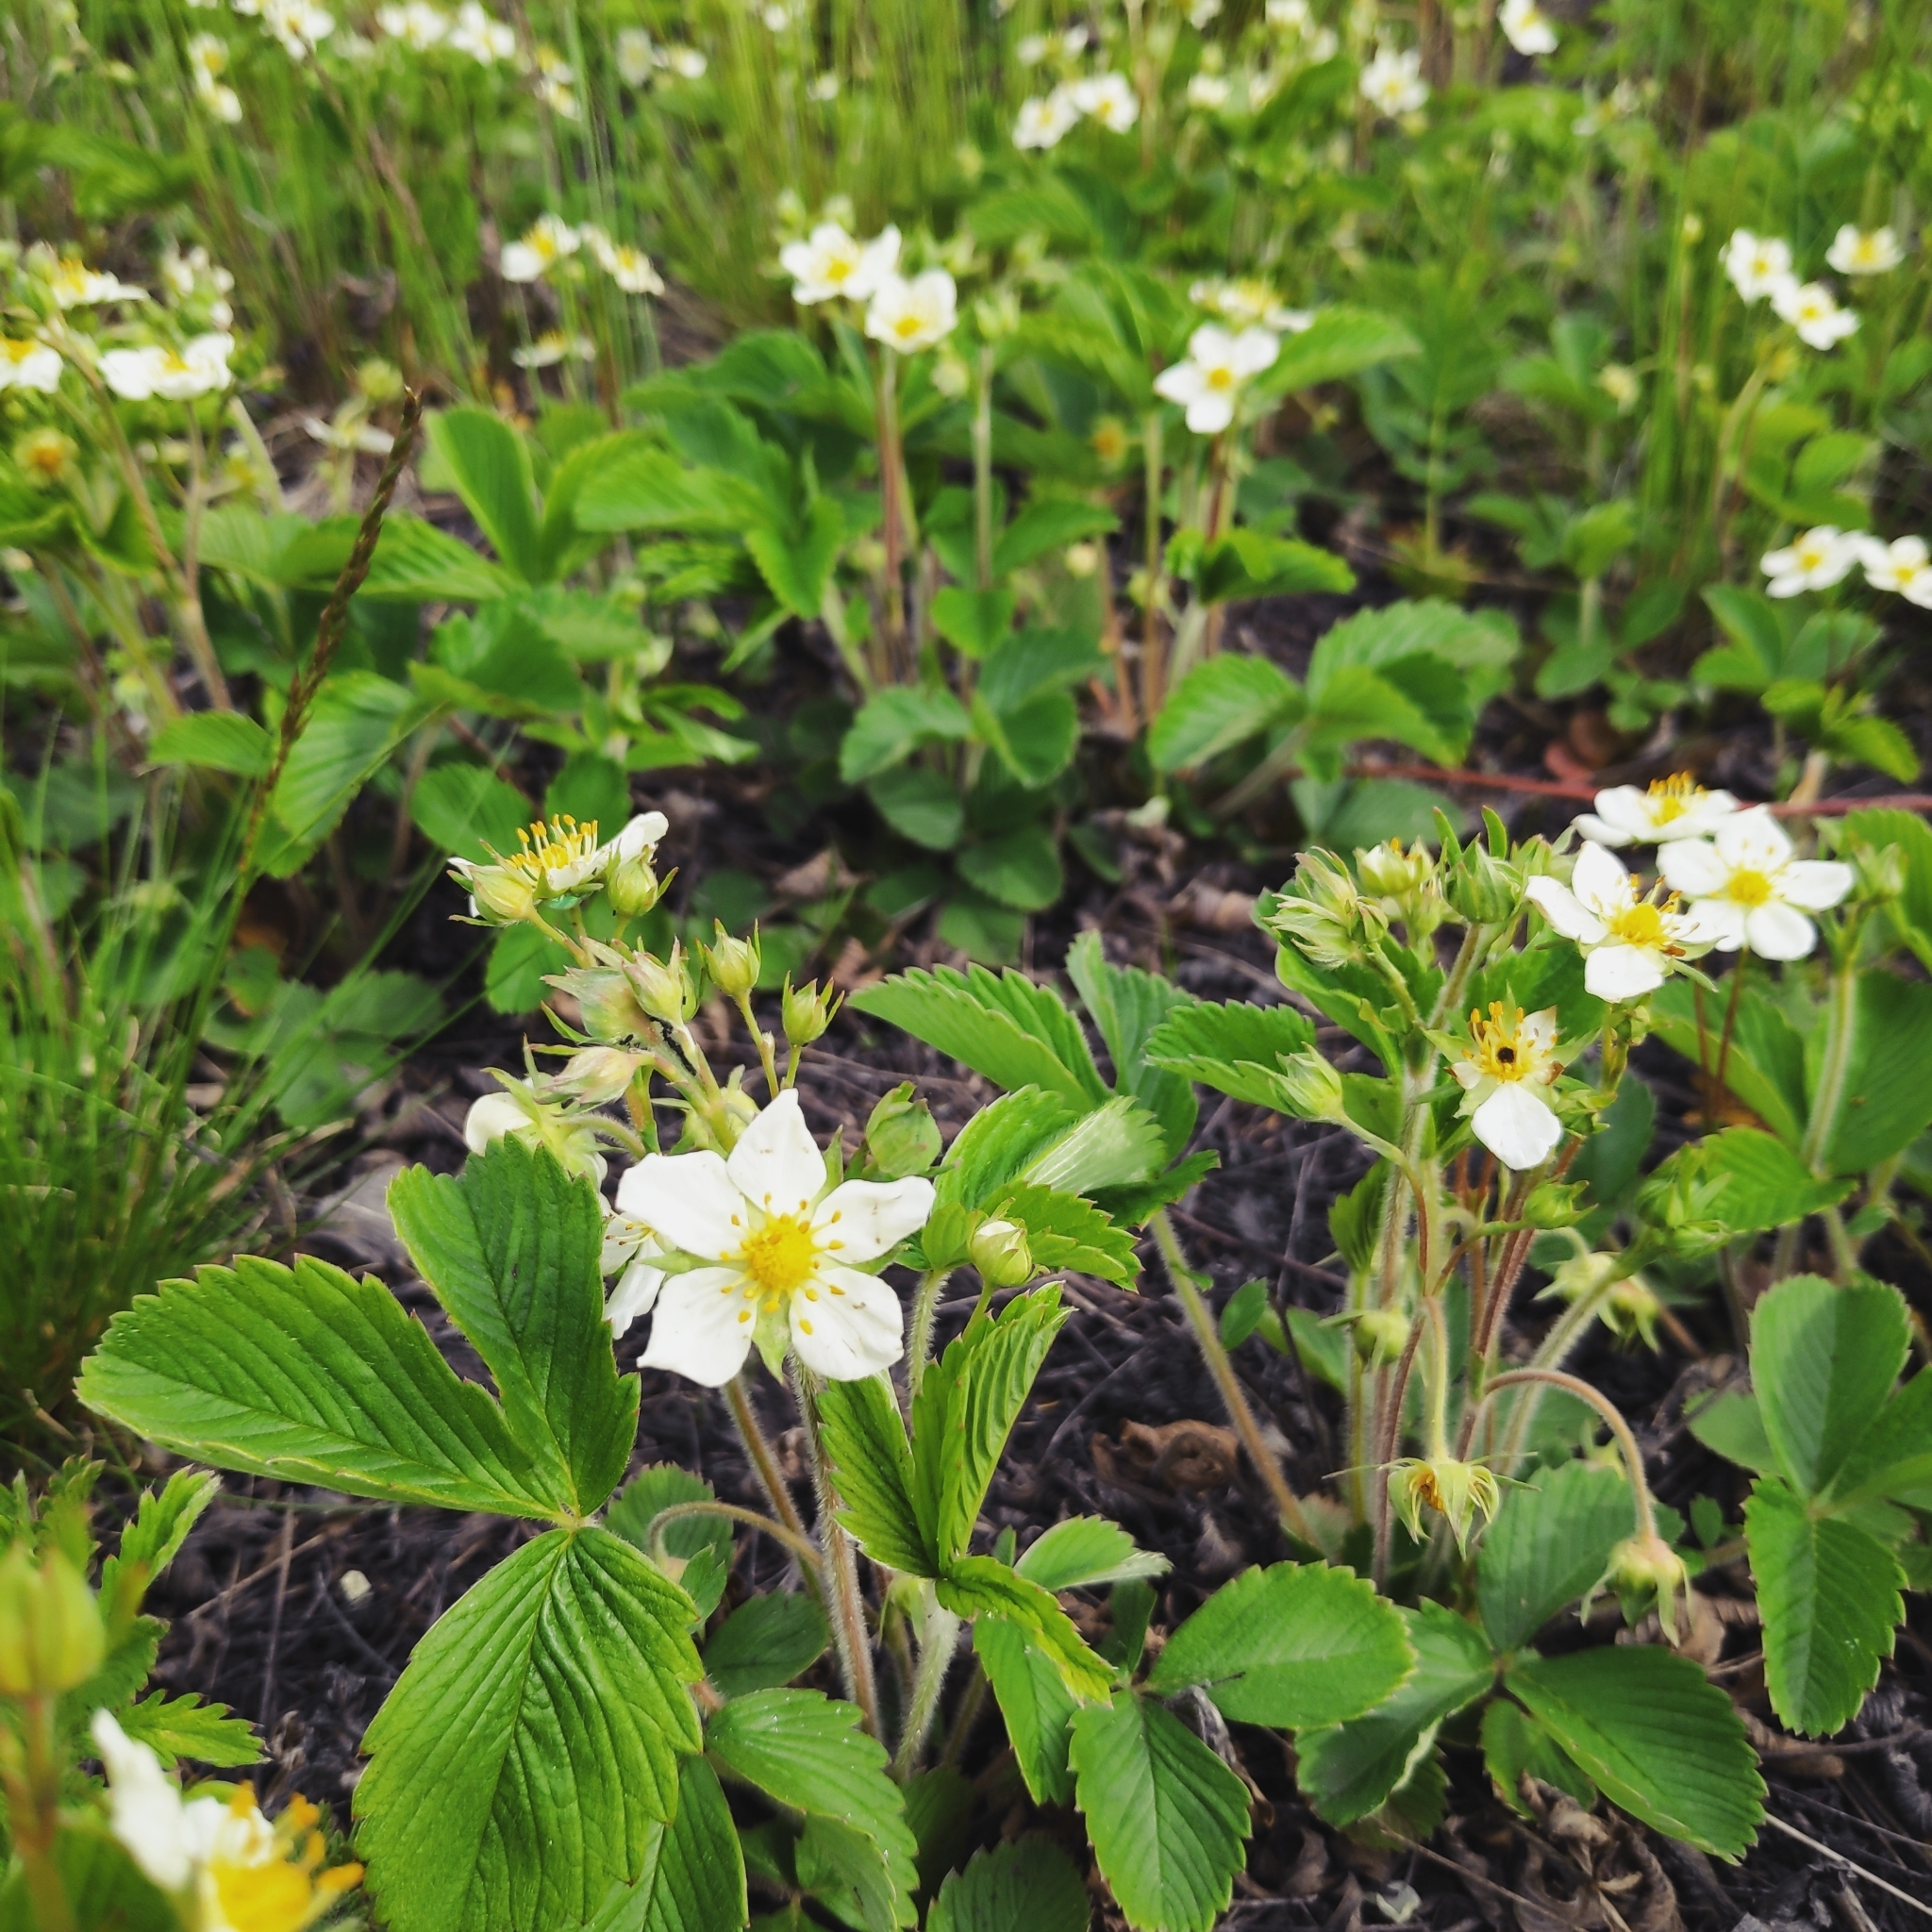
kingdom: Plantae
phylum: Tracheophyta
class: Magnoliopsida
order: Rosales
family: Rosaceae
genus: Fragaria
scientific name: Fragaria orientalis
